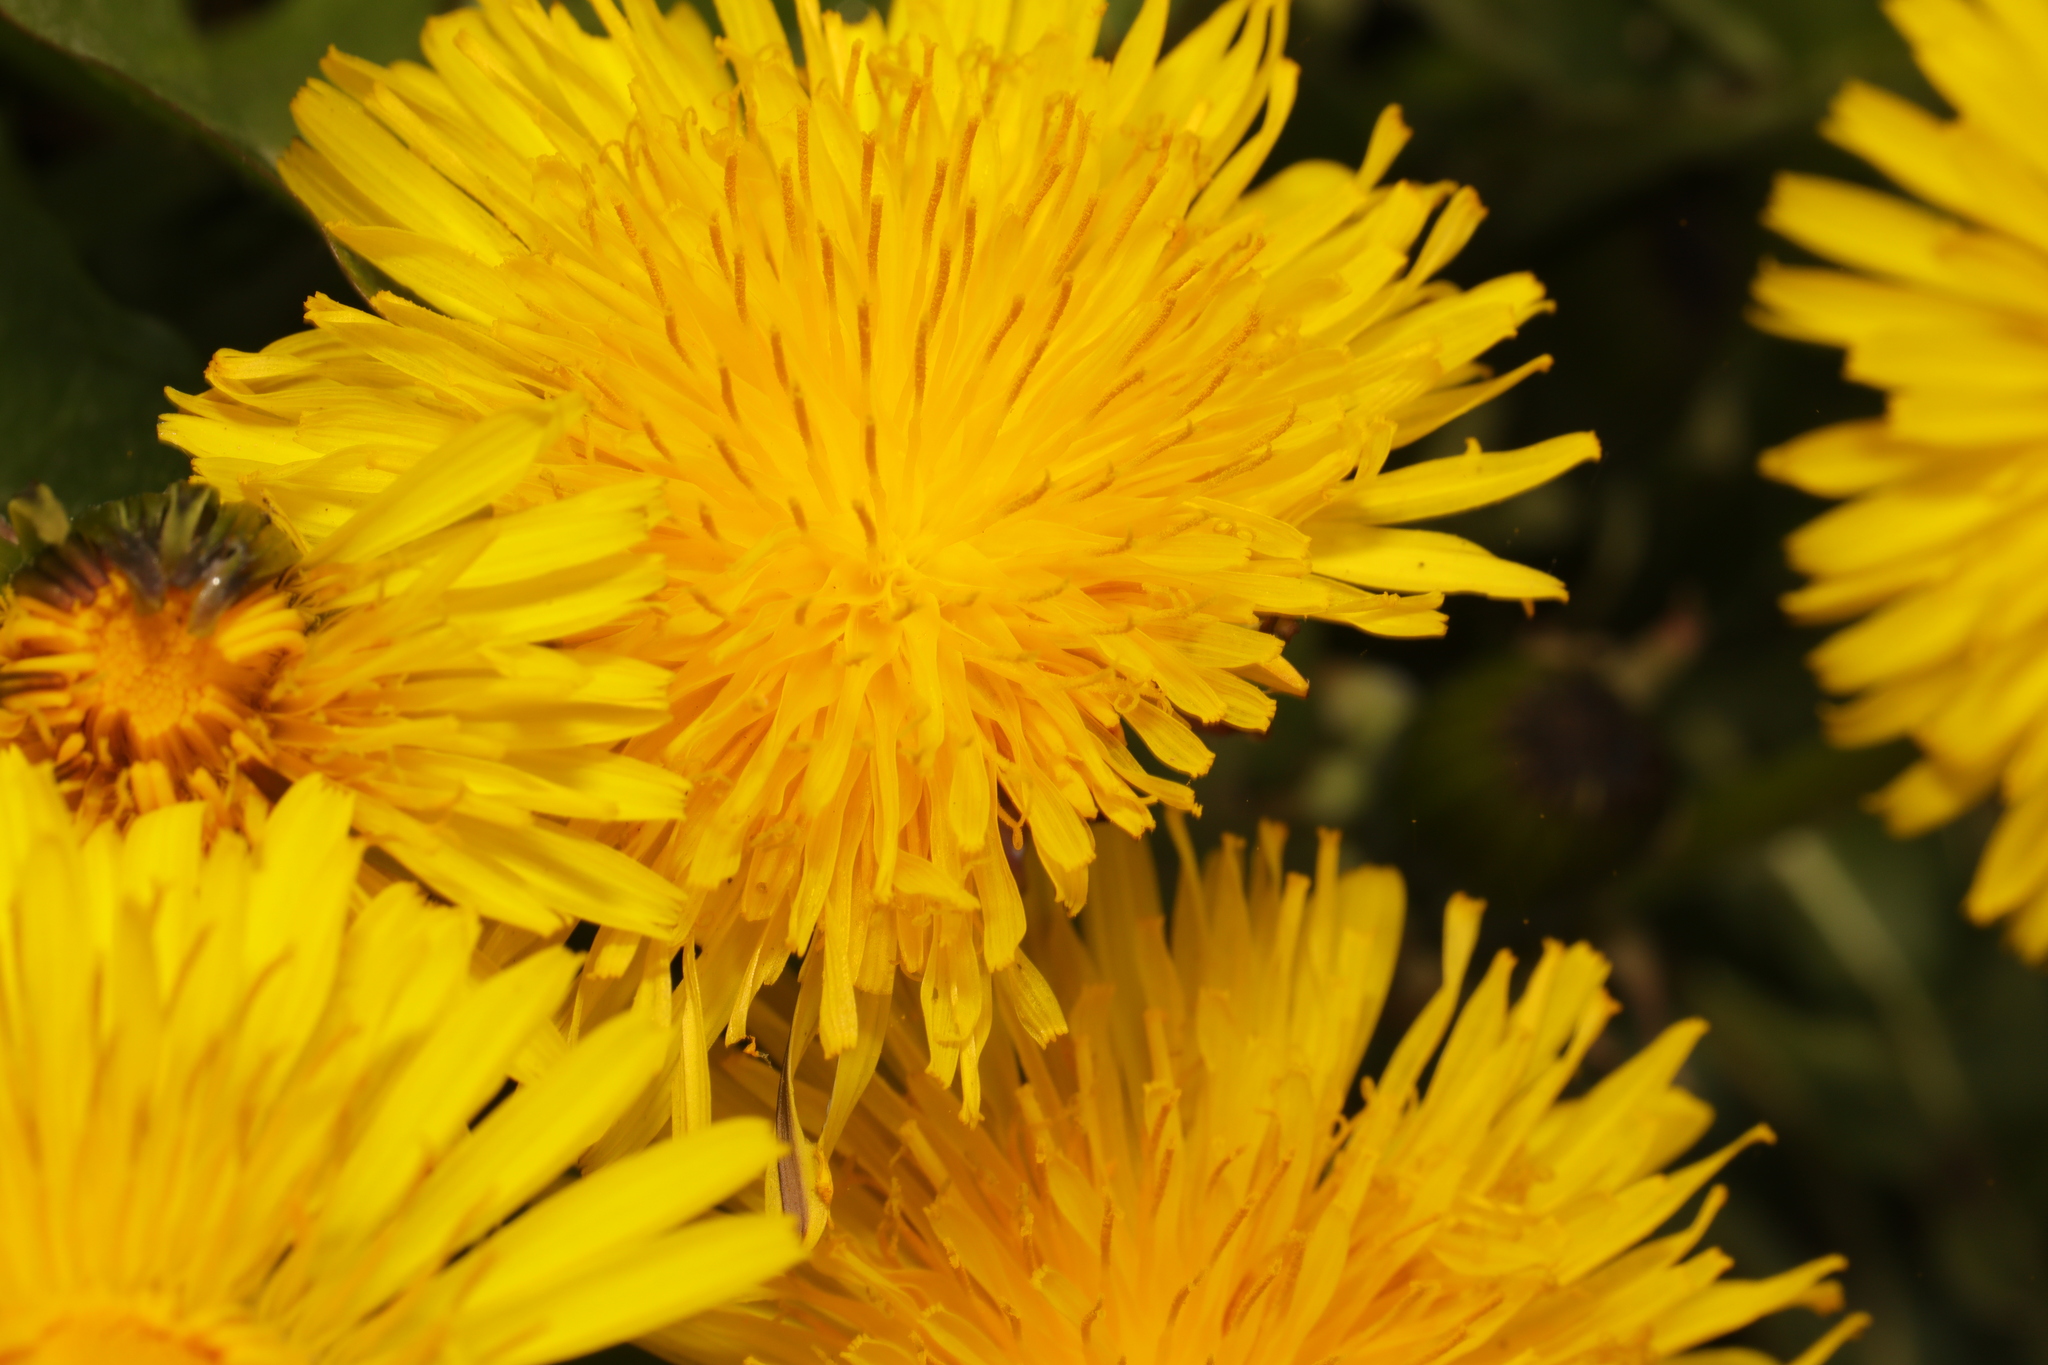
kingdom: Plantae
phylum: Tracheophyta
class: Magnoliopsida
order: Asterales
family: Asteraceae
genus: Taraxacum
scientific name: Taraxacum officinale
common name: Common dandelion
